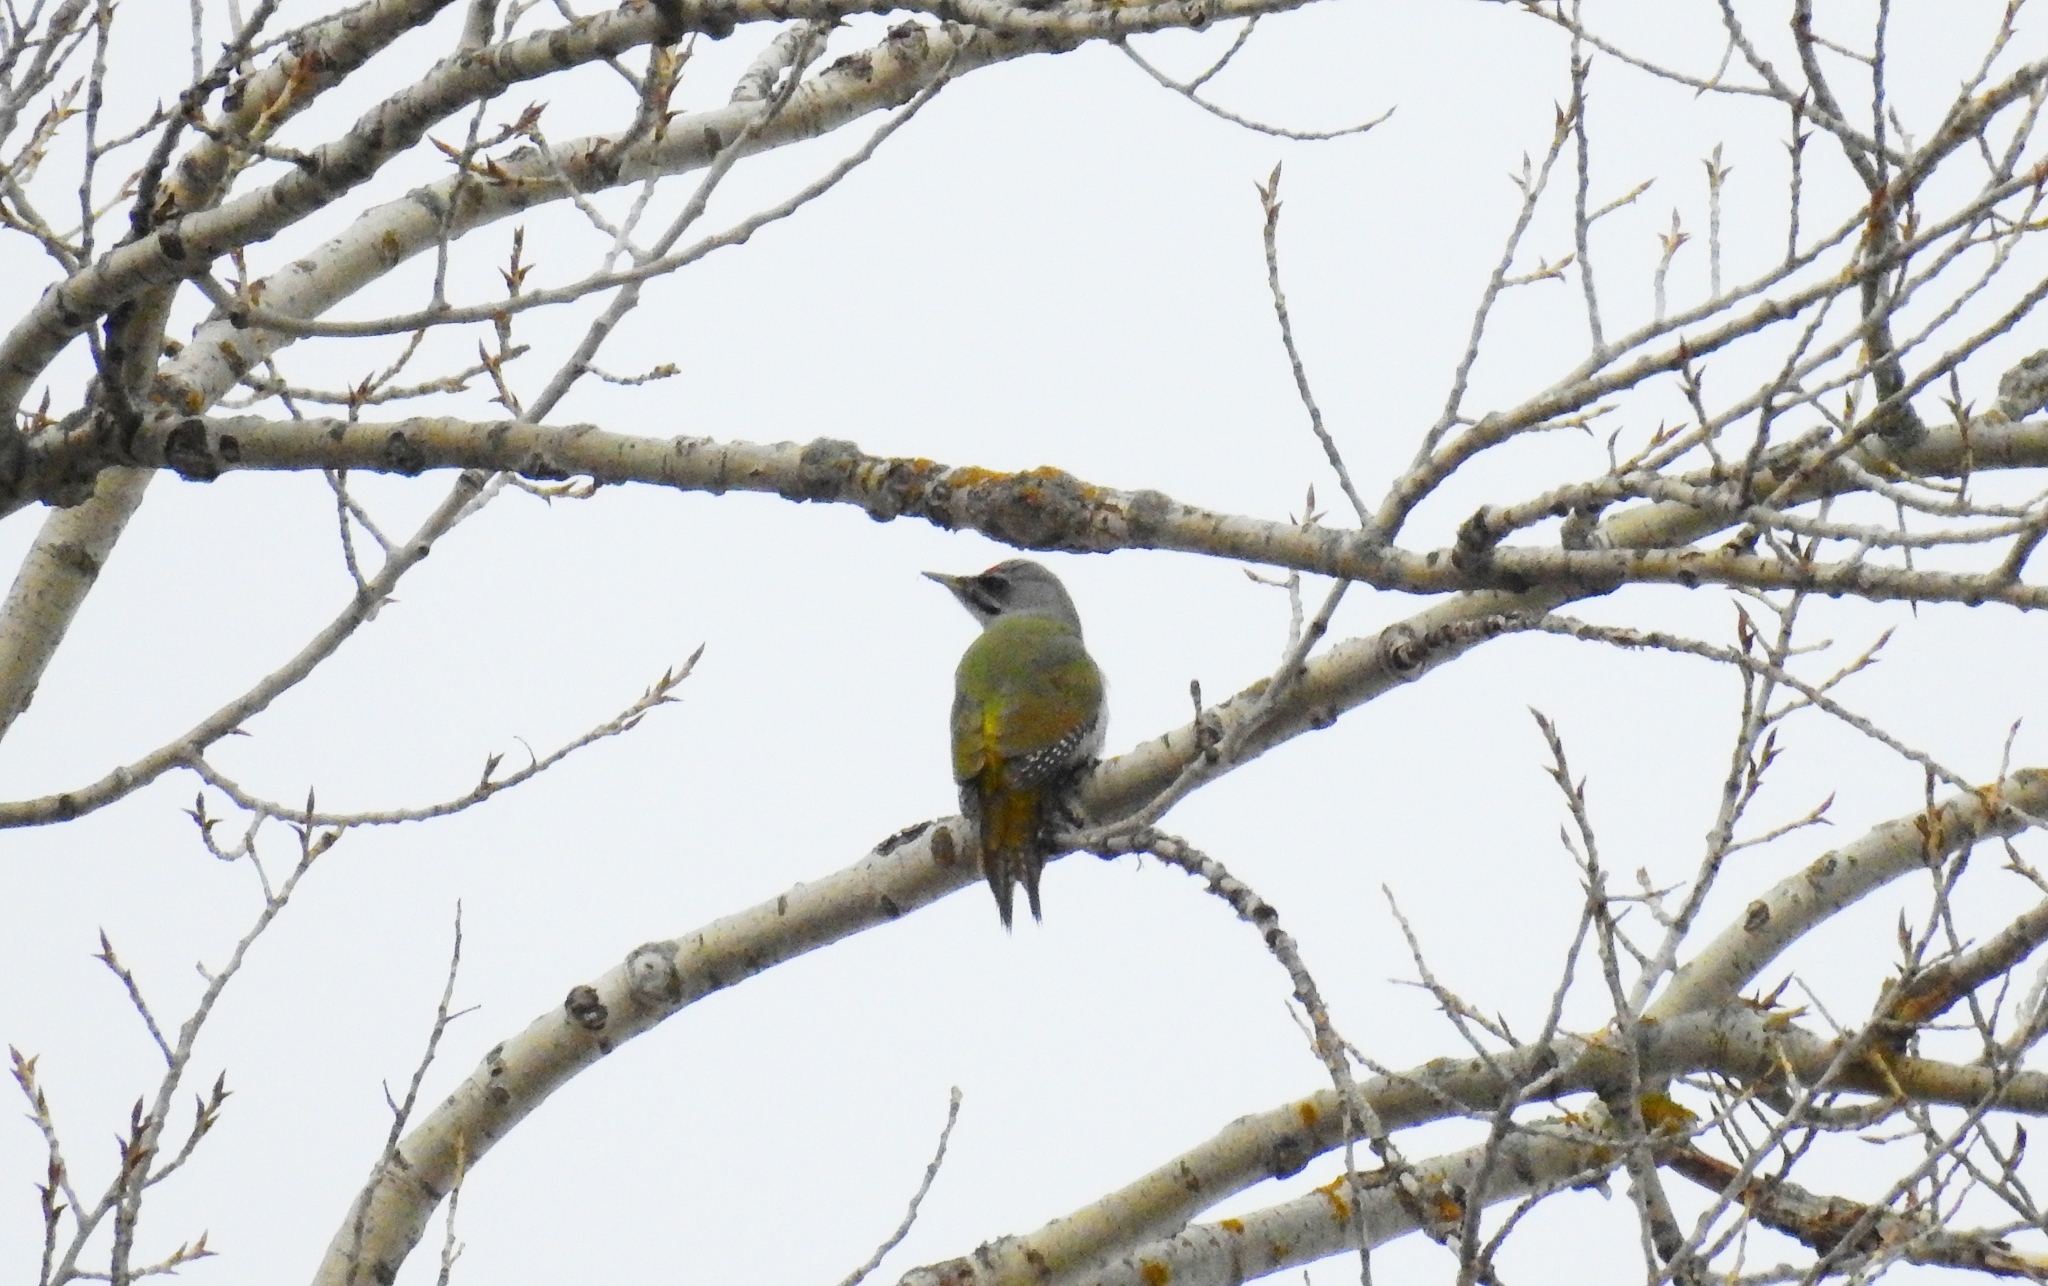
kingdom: Animalia
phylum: Chordata
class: Aves
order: Piciformes
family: Picidae
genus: Picus
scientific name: Picus canus
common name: Grey-headed woodpecker
